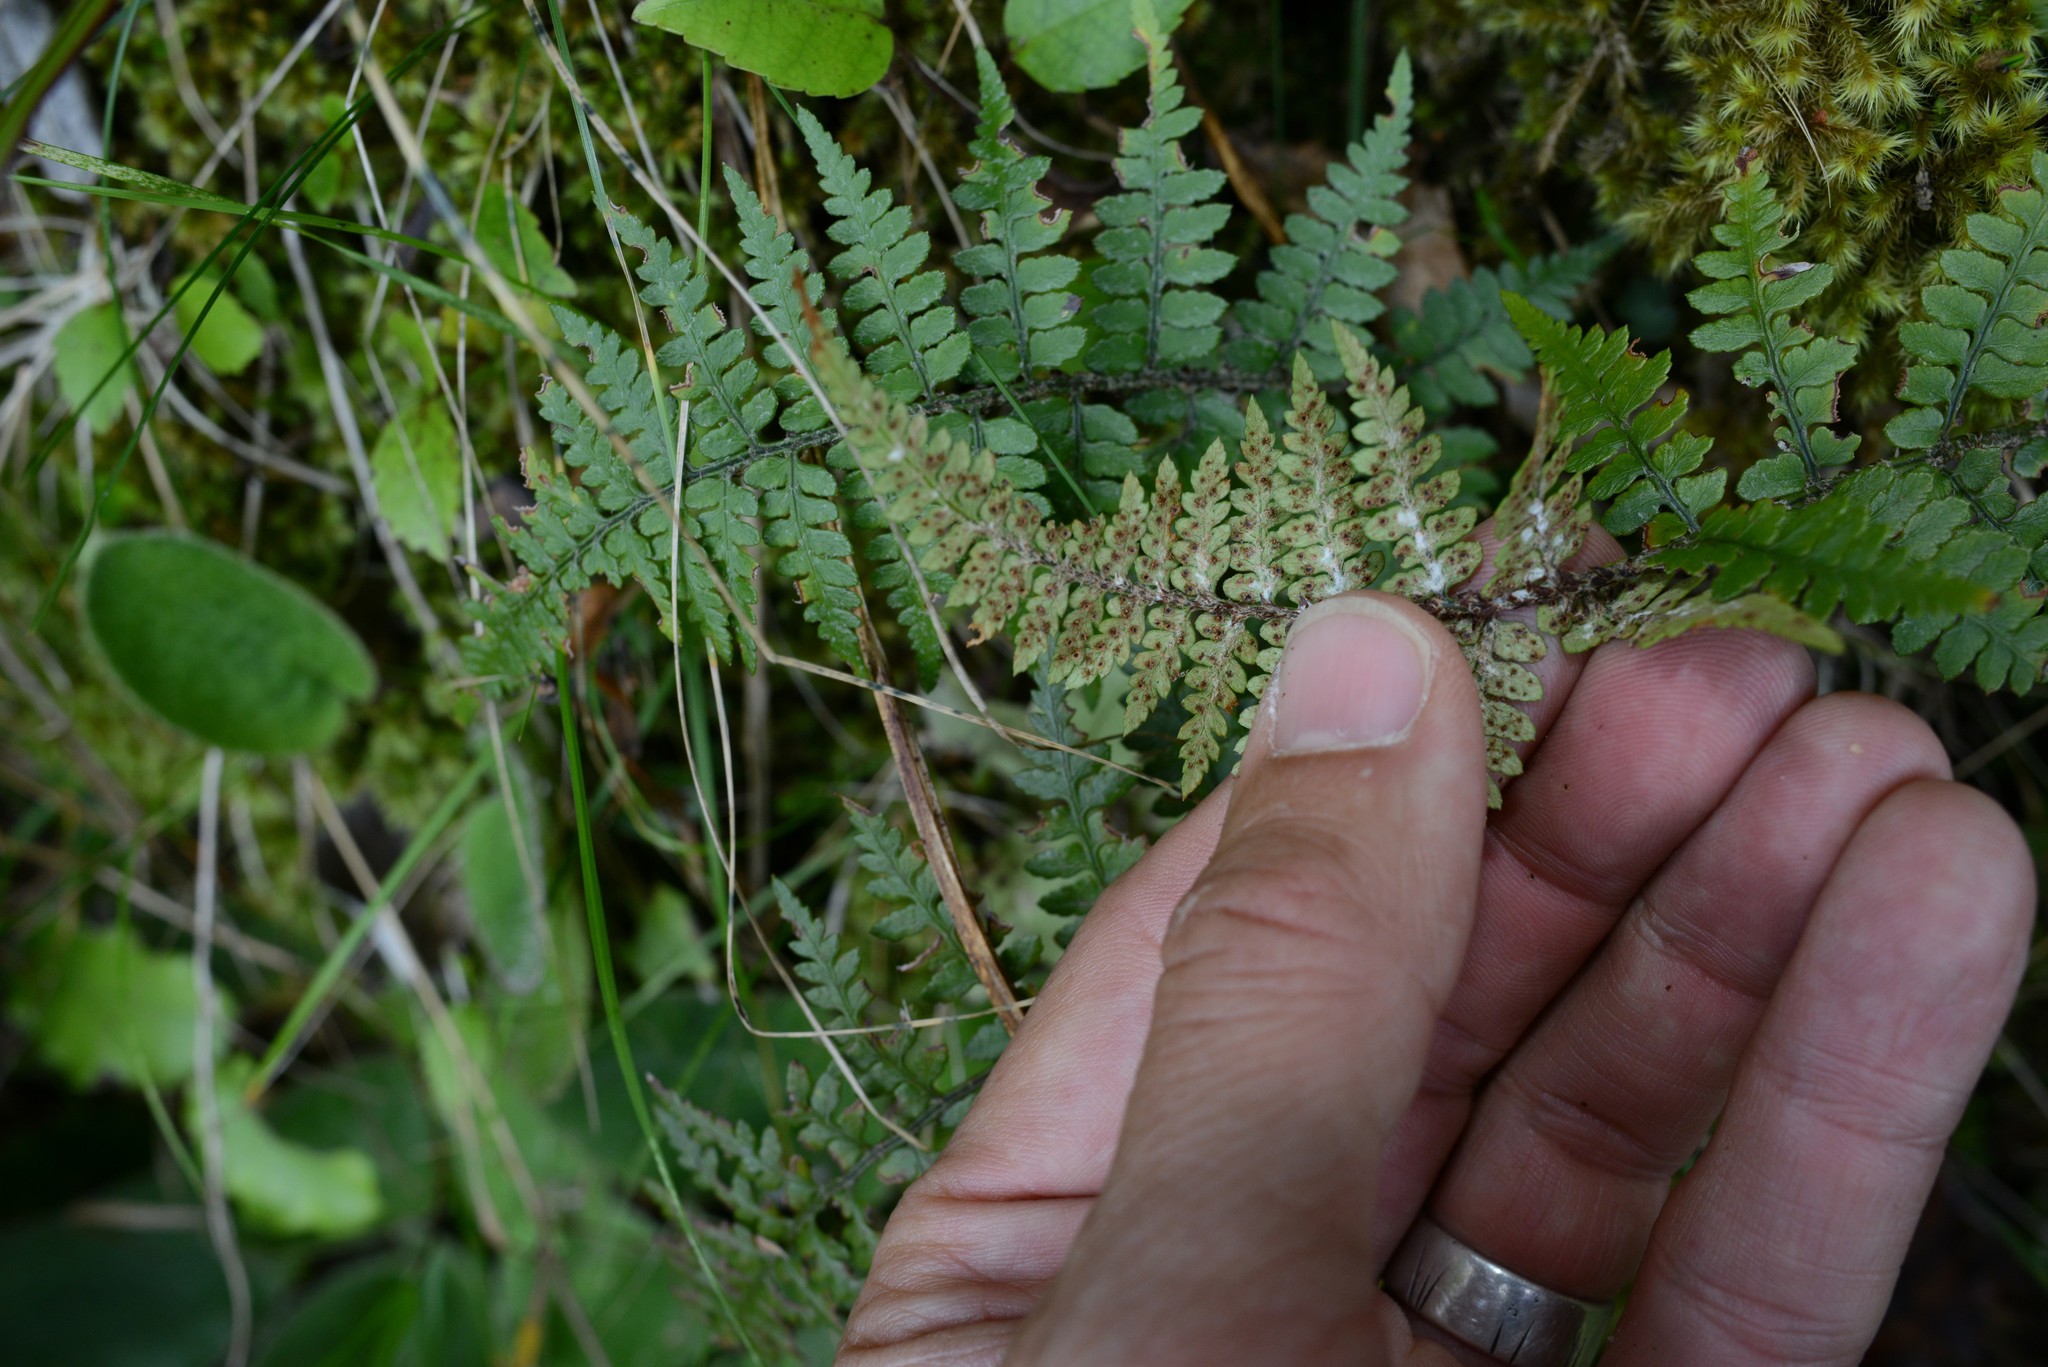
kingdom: Plantae
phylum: Tracheophyta
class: Polypodiopsida
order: Polypodiales
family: Dryopteridaceae
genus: Polystichum
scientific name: Polystichum oculatum
